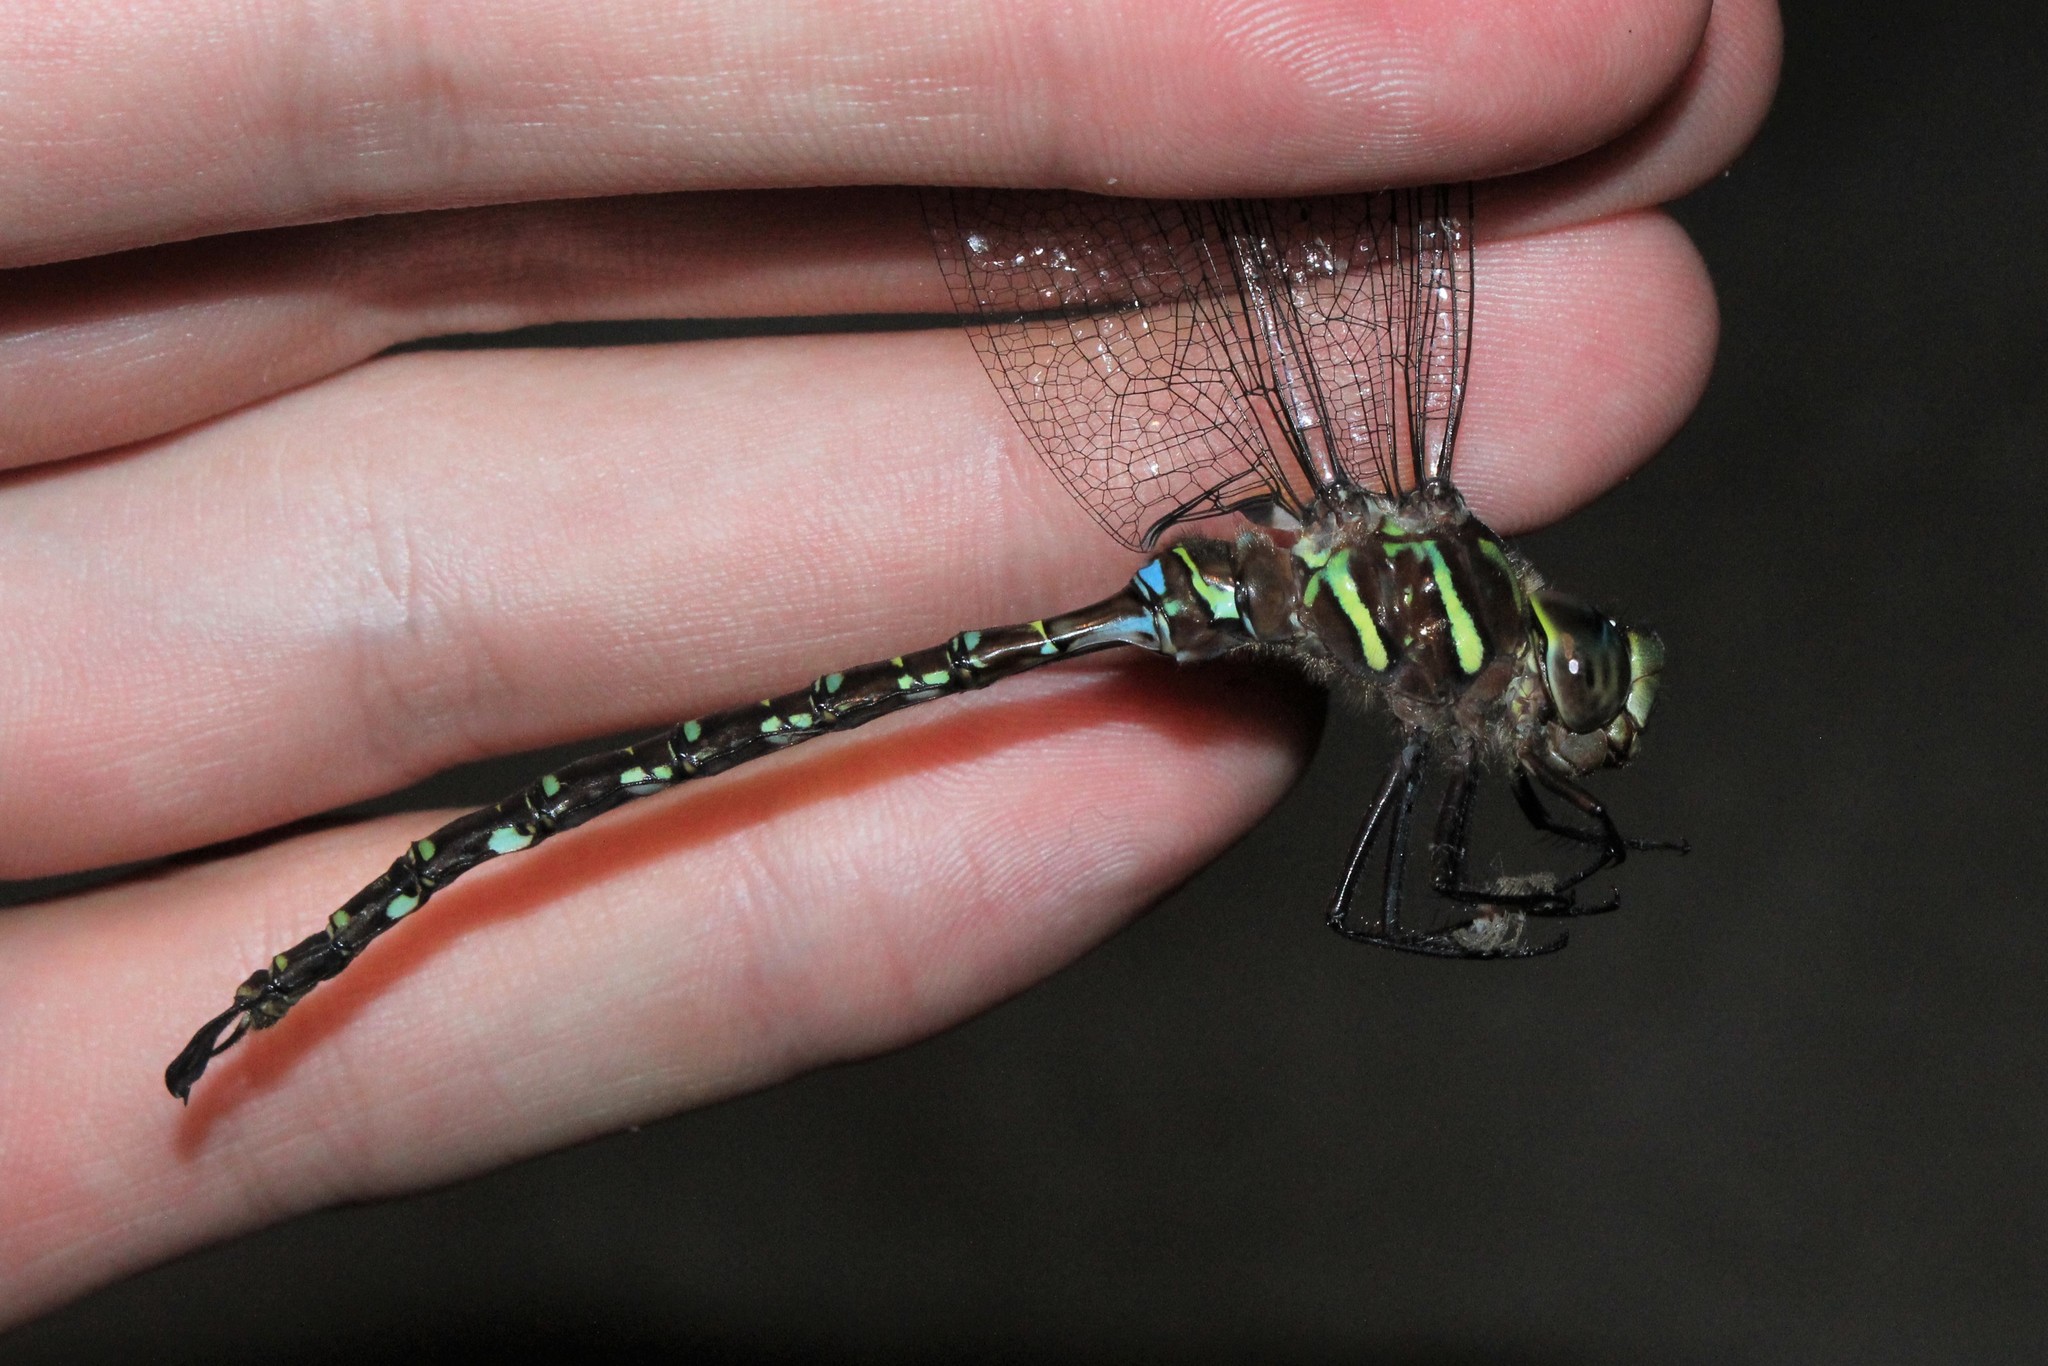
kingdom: Animalia
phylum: Arthropoda
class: Insecta
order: Odonata
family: Aeshnidae
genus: Aeshna
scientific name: Aeshna umbrosa
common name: Shadow darner
